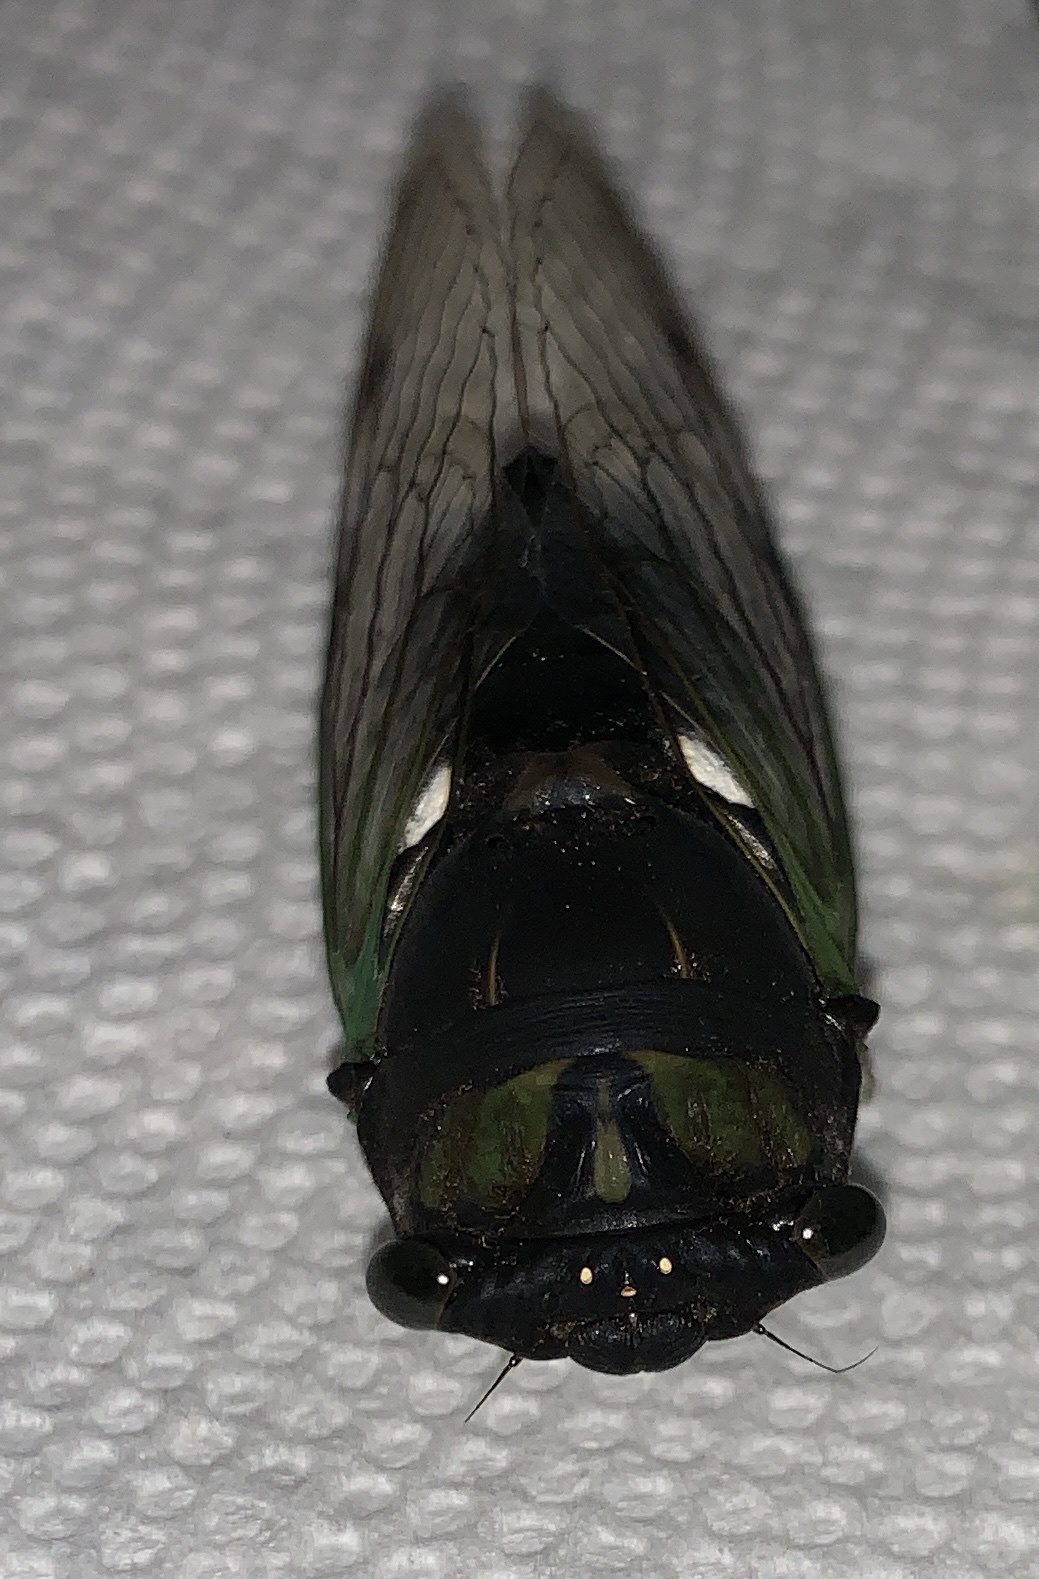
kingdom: Animalia
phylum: Arthropoda
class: Insecta
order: Hemiptera
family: Cicadidae
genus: Neotibicen
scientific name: Neotibicen tibicen
